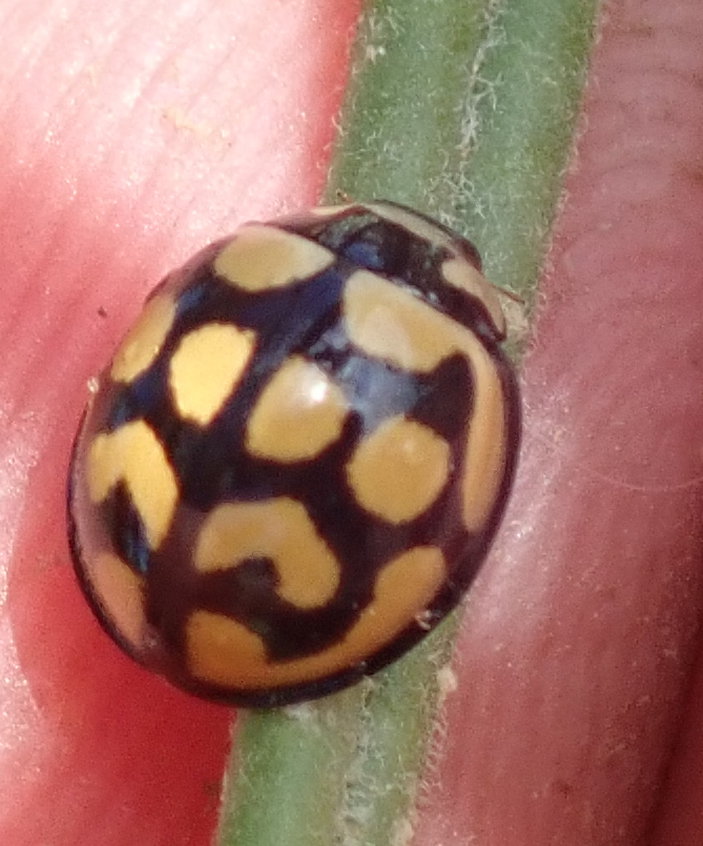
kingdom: Animalia
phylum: Arthropoda
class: Insecta
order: Coleoptera
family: Coccinellidae
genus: Cheilomenes
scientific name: Cheilomenes lunata
